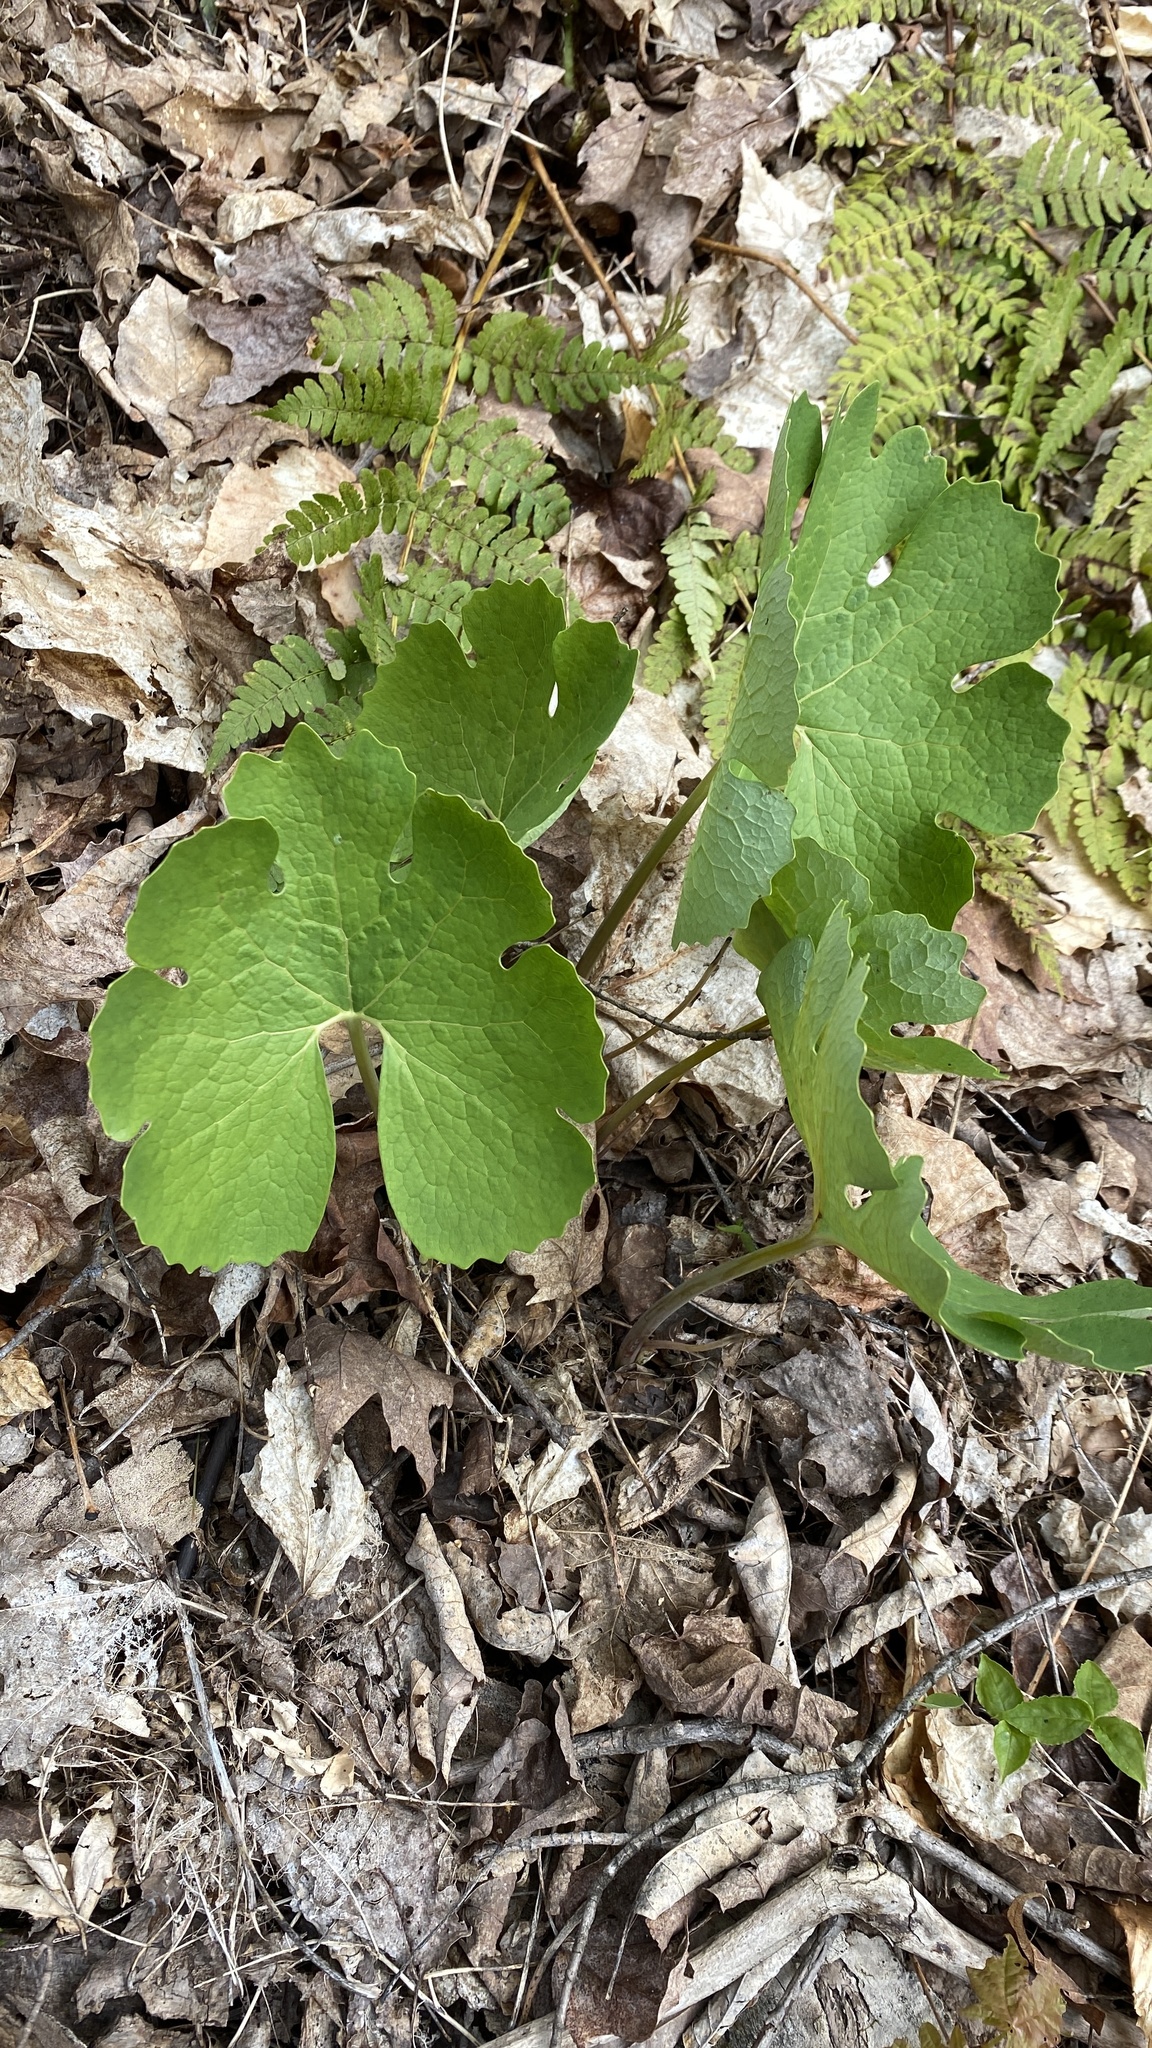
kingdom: Plantae
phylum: Tracheophyta
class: Magnoliopsida
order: Ranunculales
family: Papaveraceae
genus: Sanguinaria
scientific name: Sanguinaria canadensis
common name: Bloodroot
